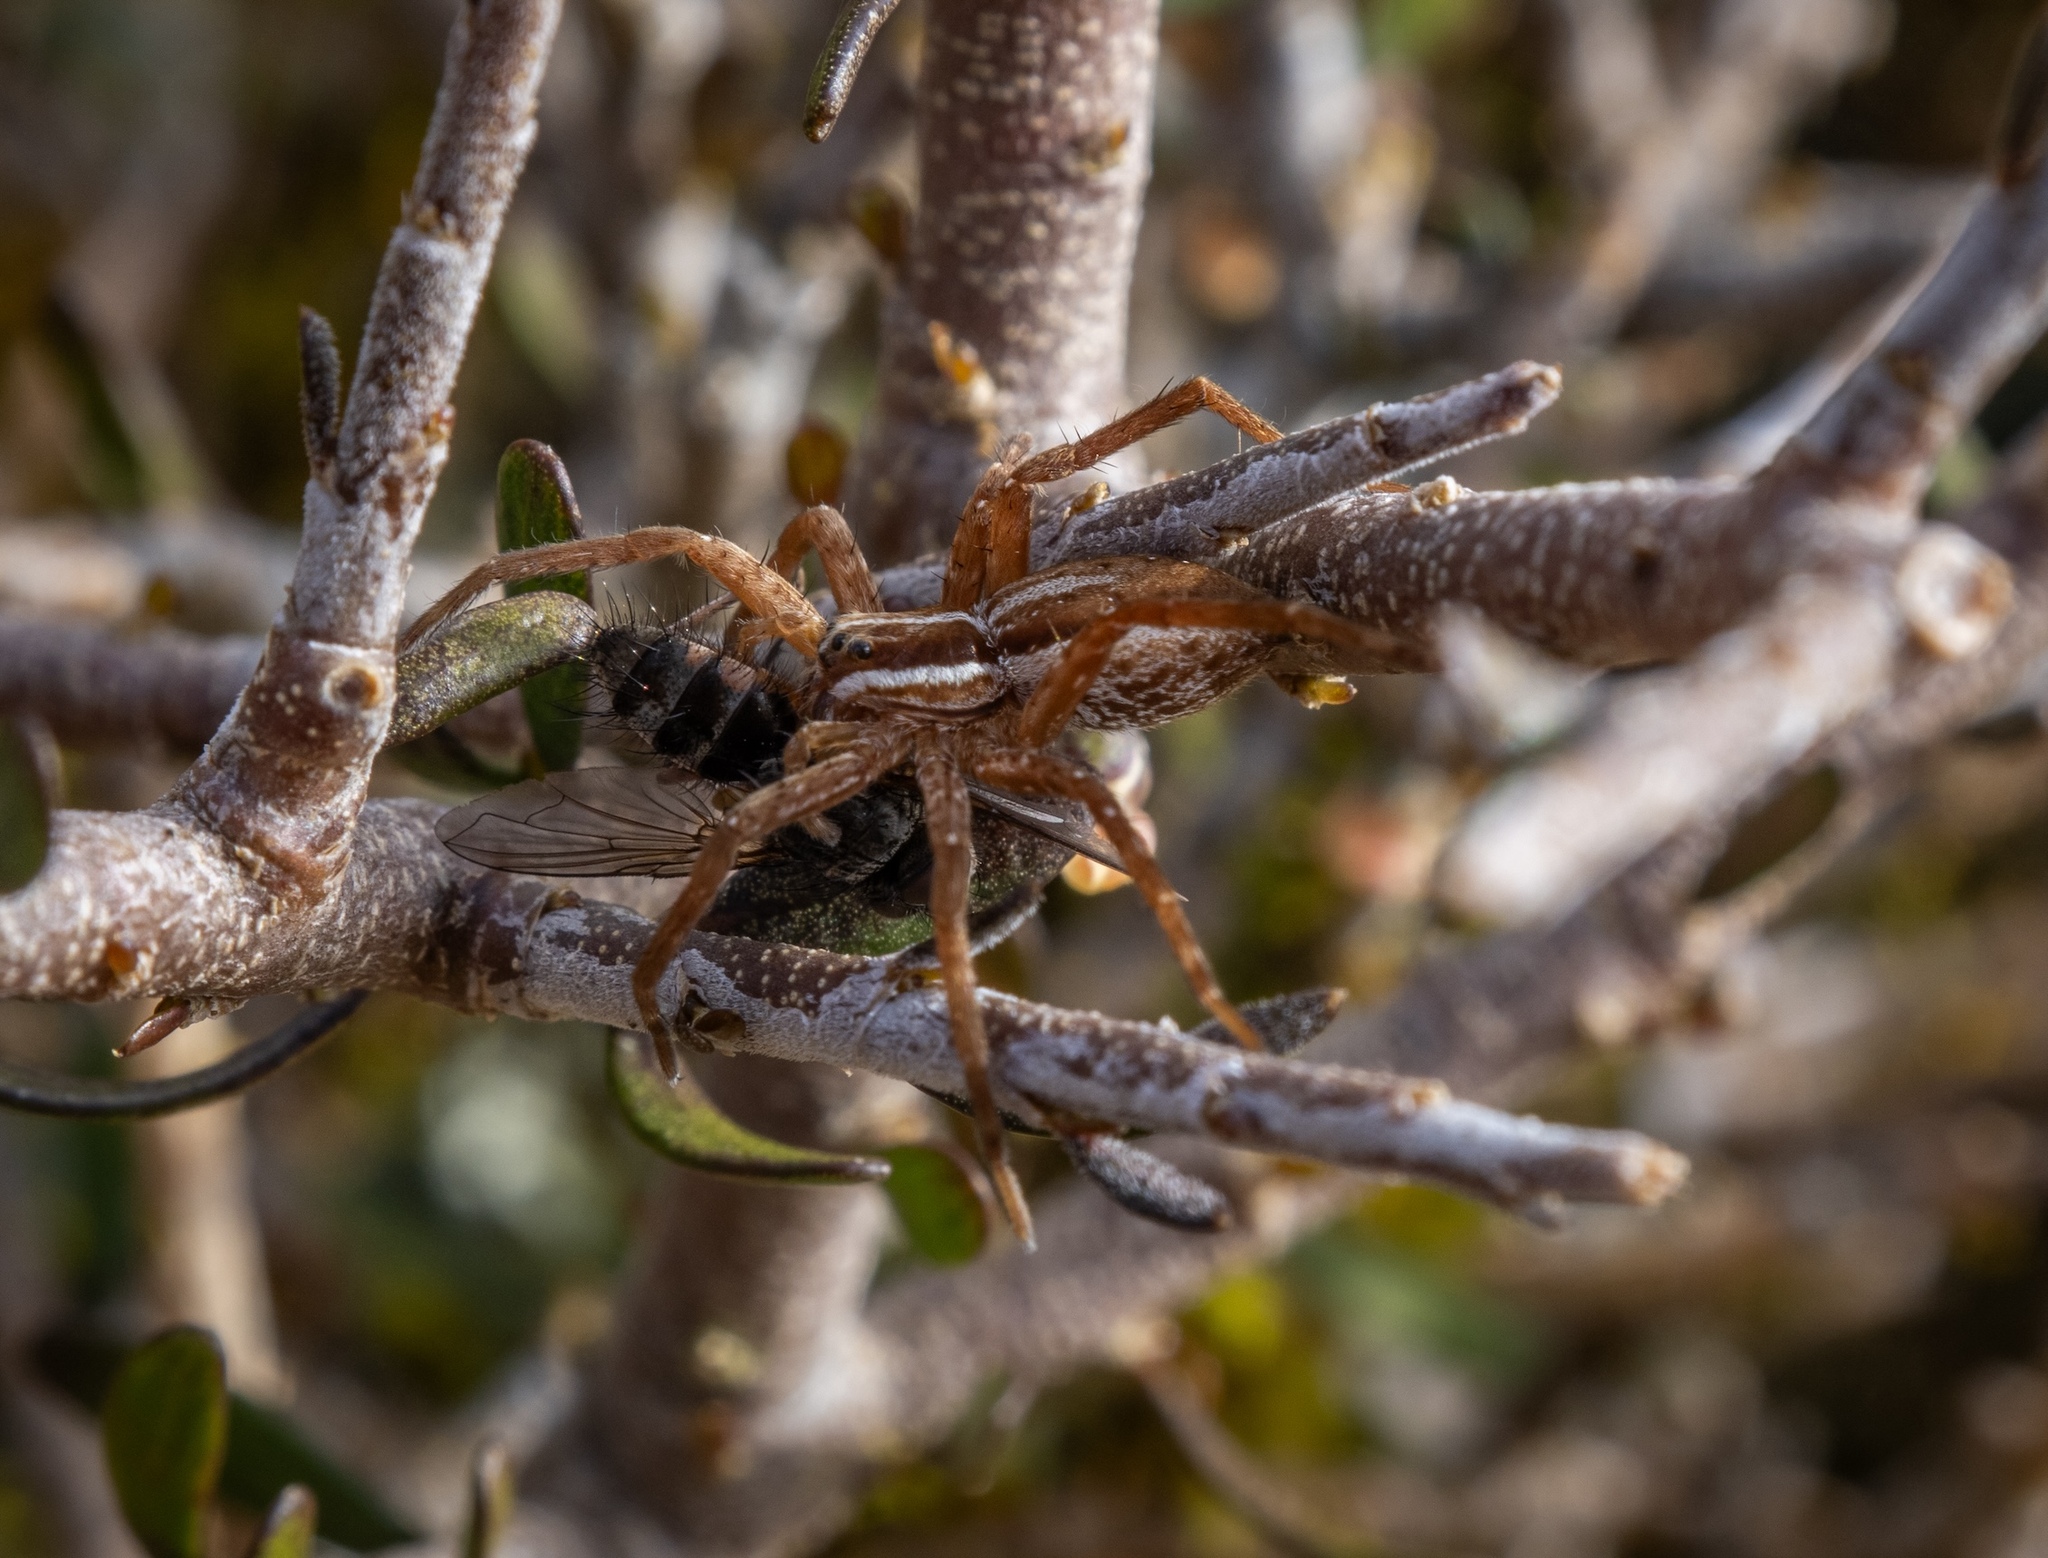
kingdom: Animalia
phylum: Arthropoda
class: Arachnida
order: Araneae
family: Pisauridae
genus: Dolomedes
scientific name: Dolomedes minor
